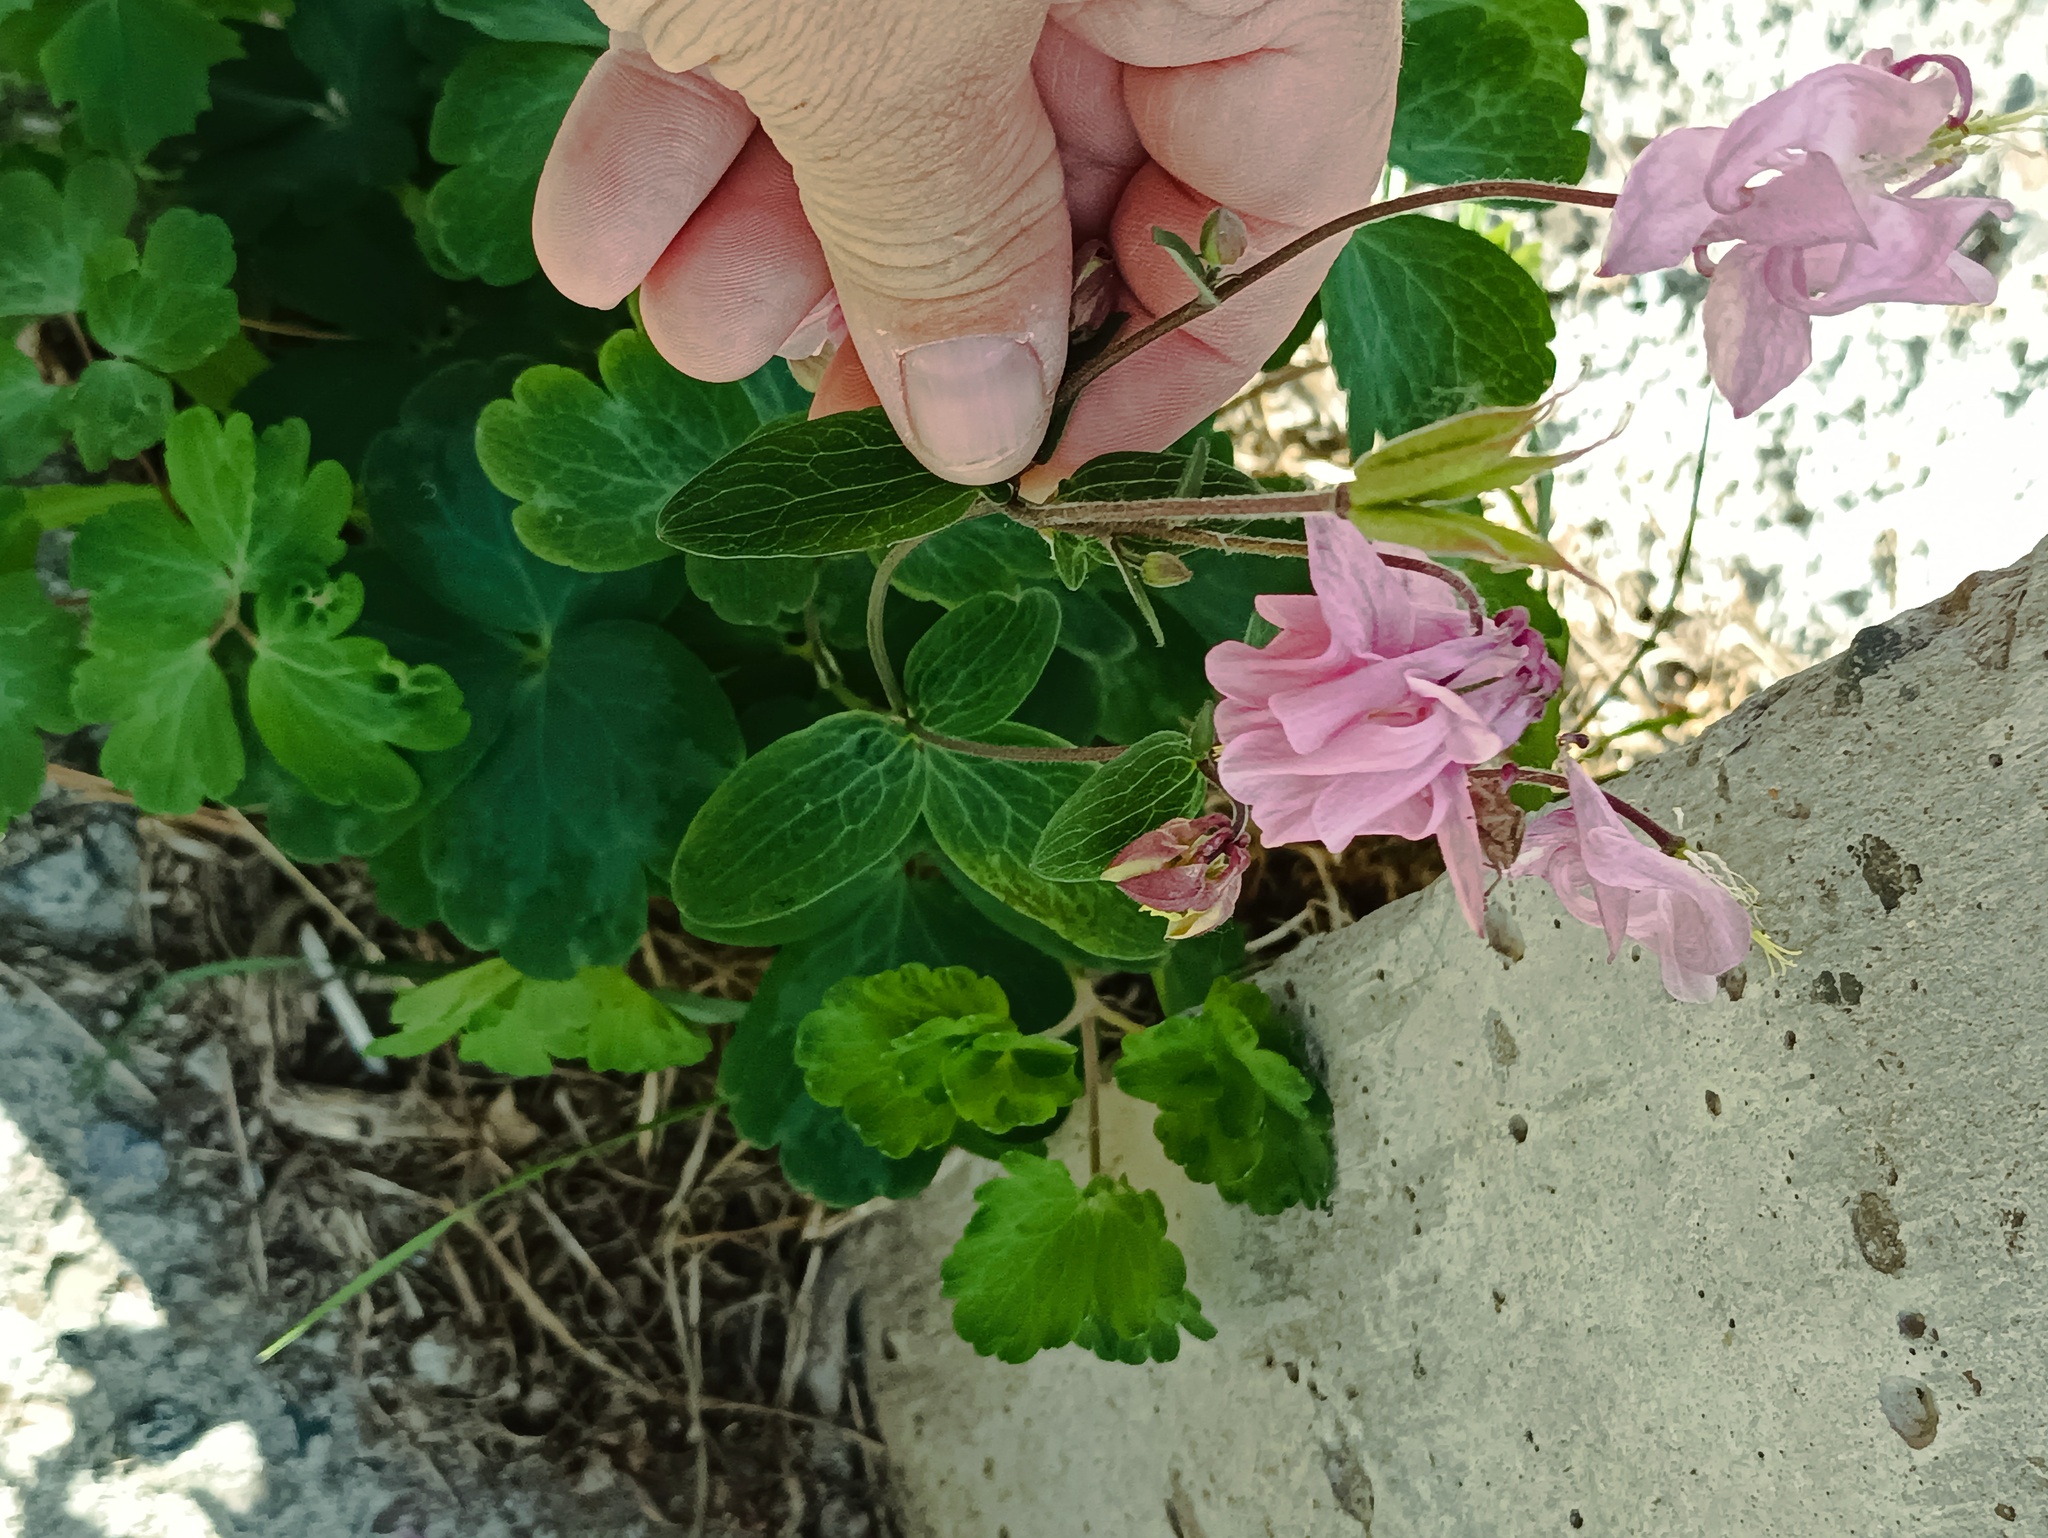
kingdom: Plantae
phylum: Tracheophyta
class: Magnoliopsida
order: Ranunculales
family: Ranunculaceae
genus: Aquilegia
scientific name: Aquilegia vulgaris
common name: Columbine
